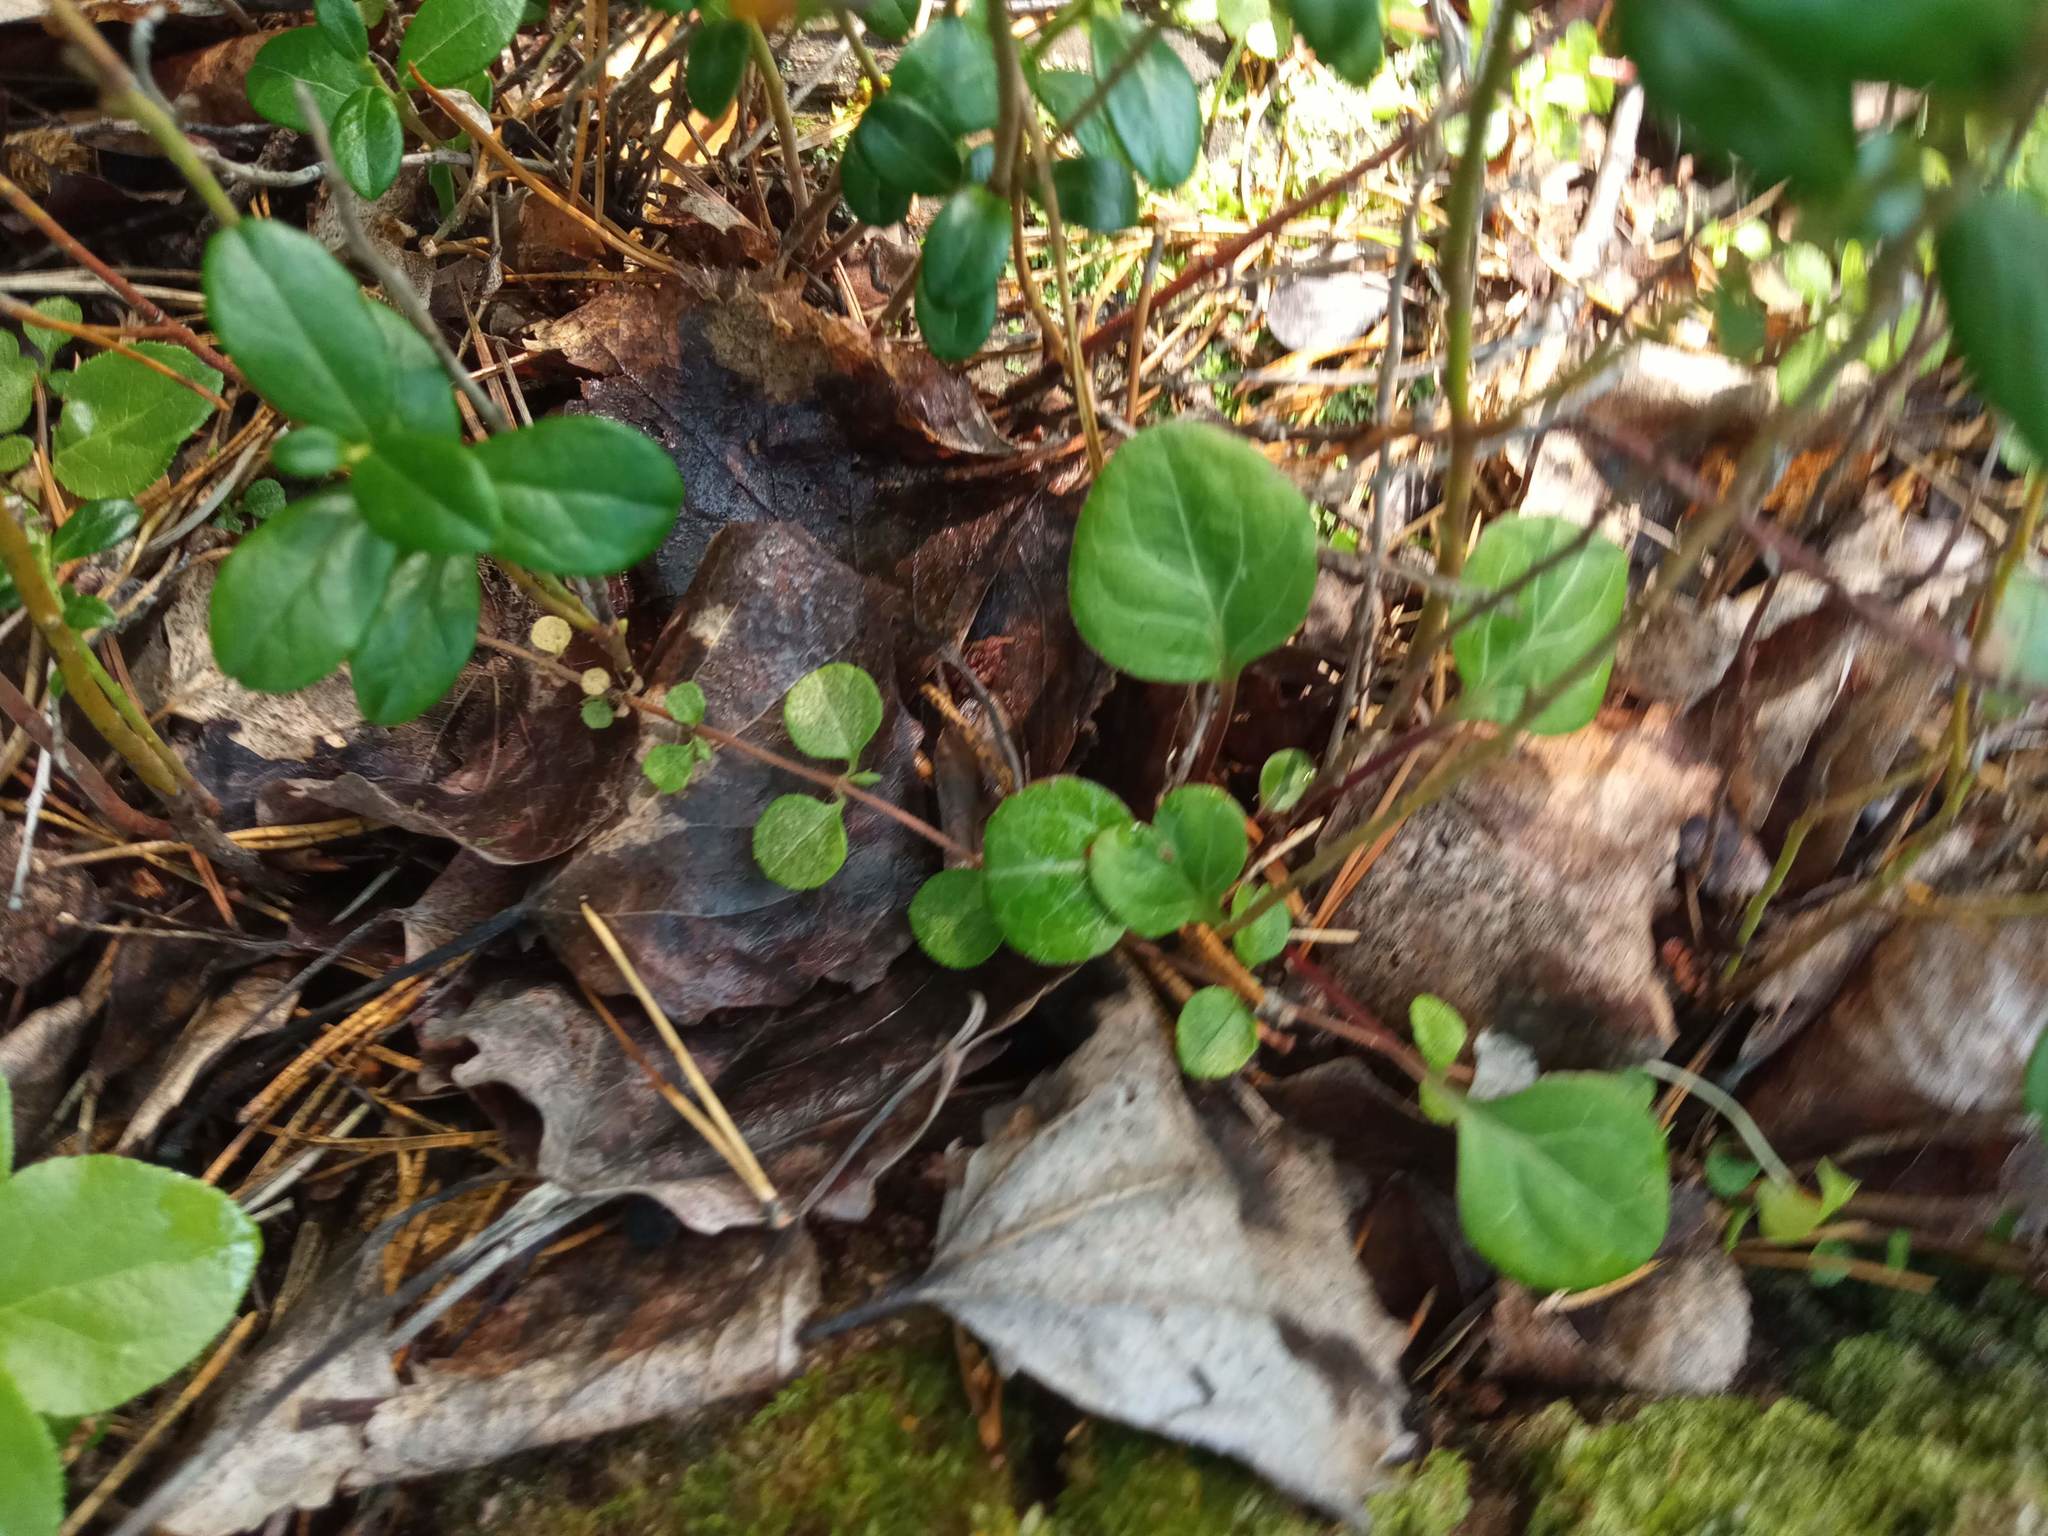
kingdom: Plantae
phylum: Tracheophyta
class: Magnoliopsida
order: Ericales
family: Ericaceae
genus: Pyrola
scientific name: Pyrola chlorantha
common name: Green wintergreen
